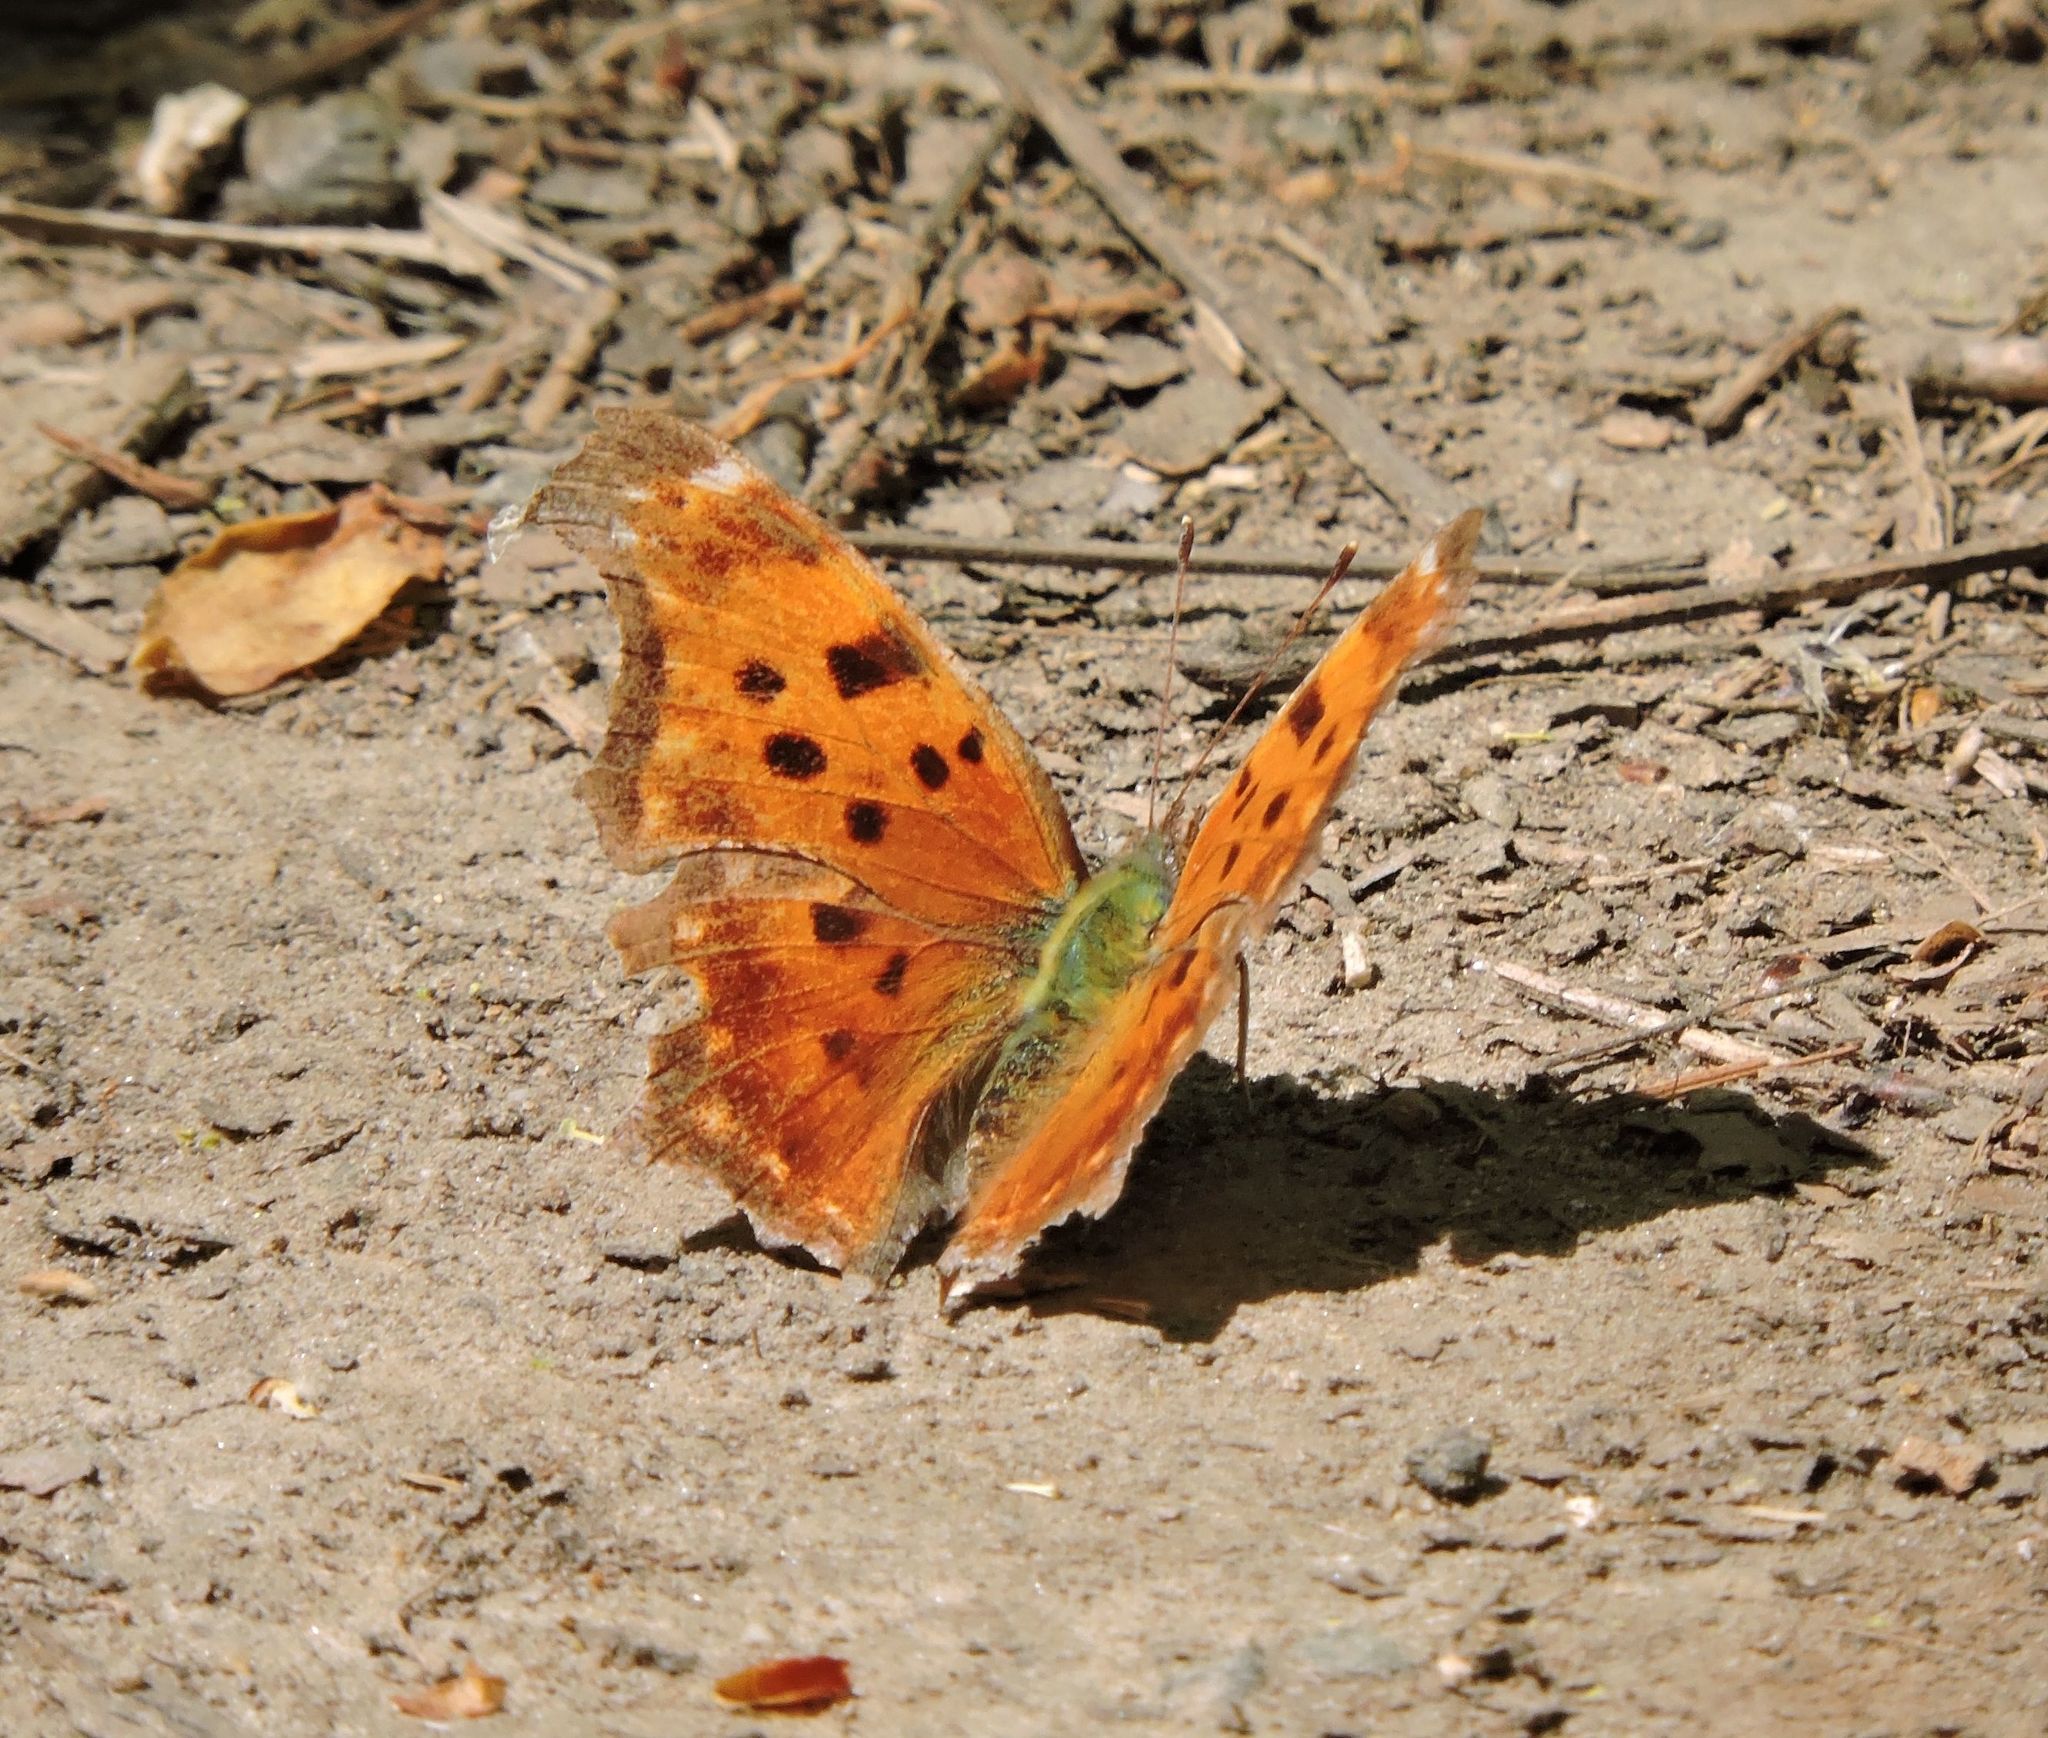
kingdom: Animalia
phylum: Arthropoda
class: Insecta
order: Lepidoptera
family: Nymphalidae
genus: Polygonia
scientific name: Polygonia comma
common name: Eastern comma
